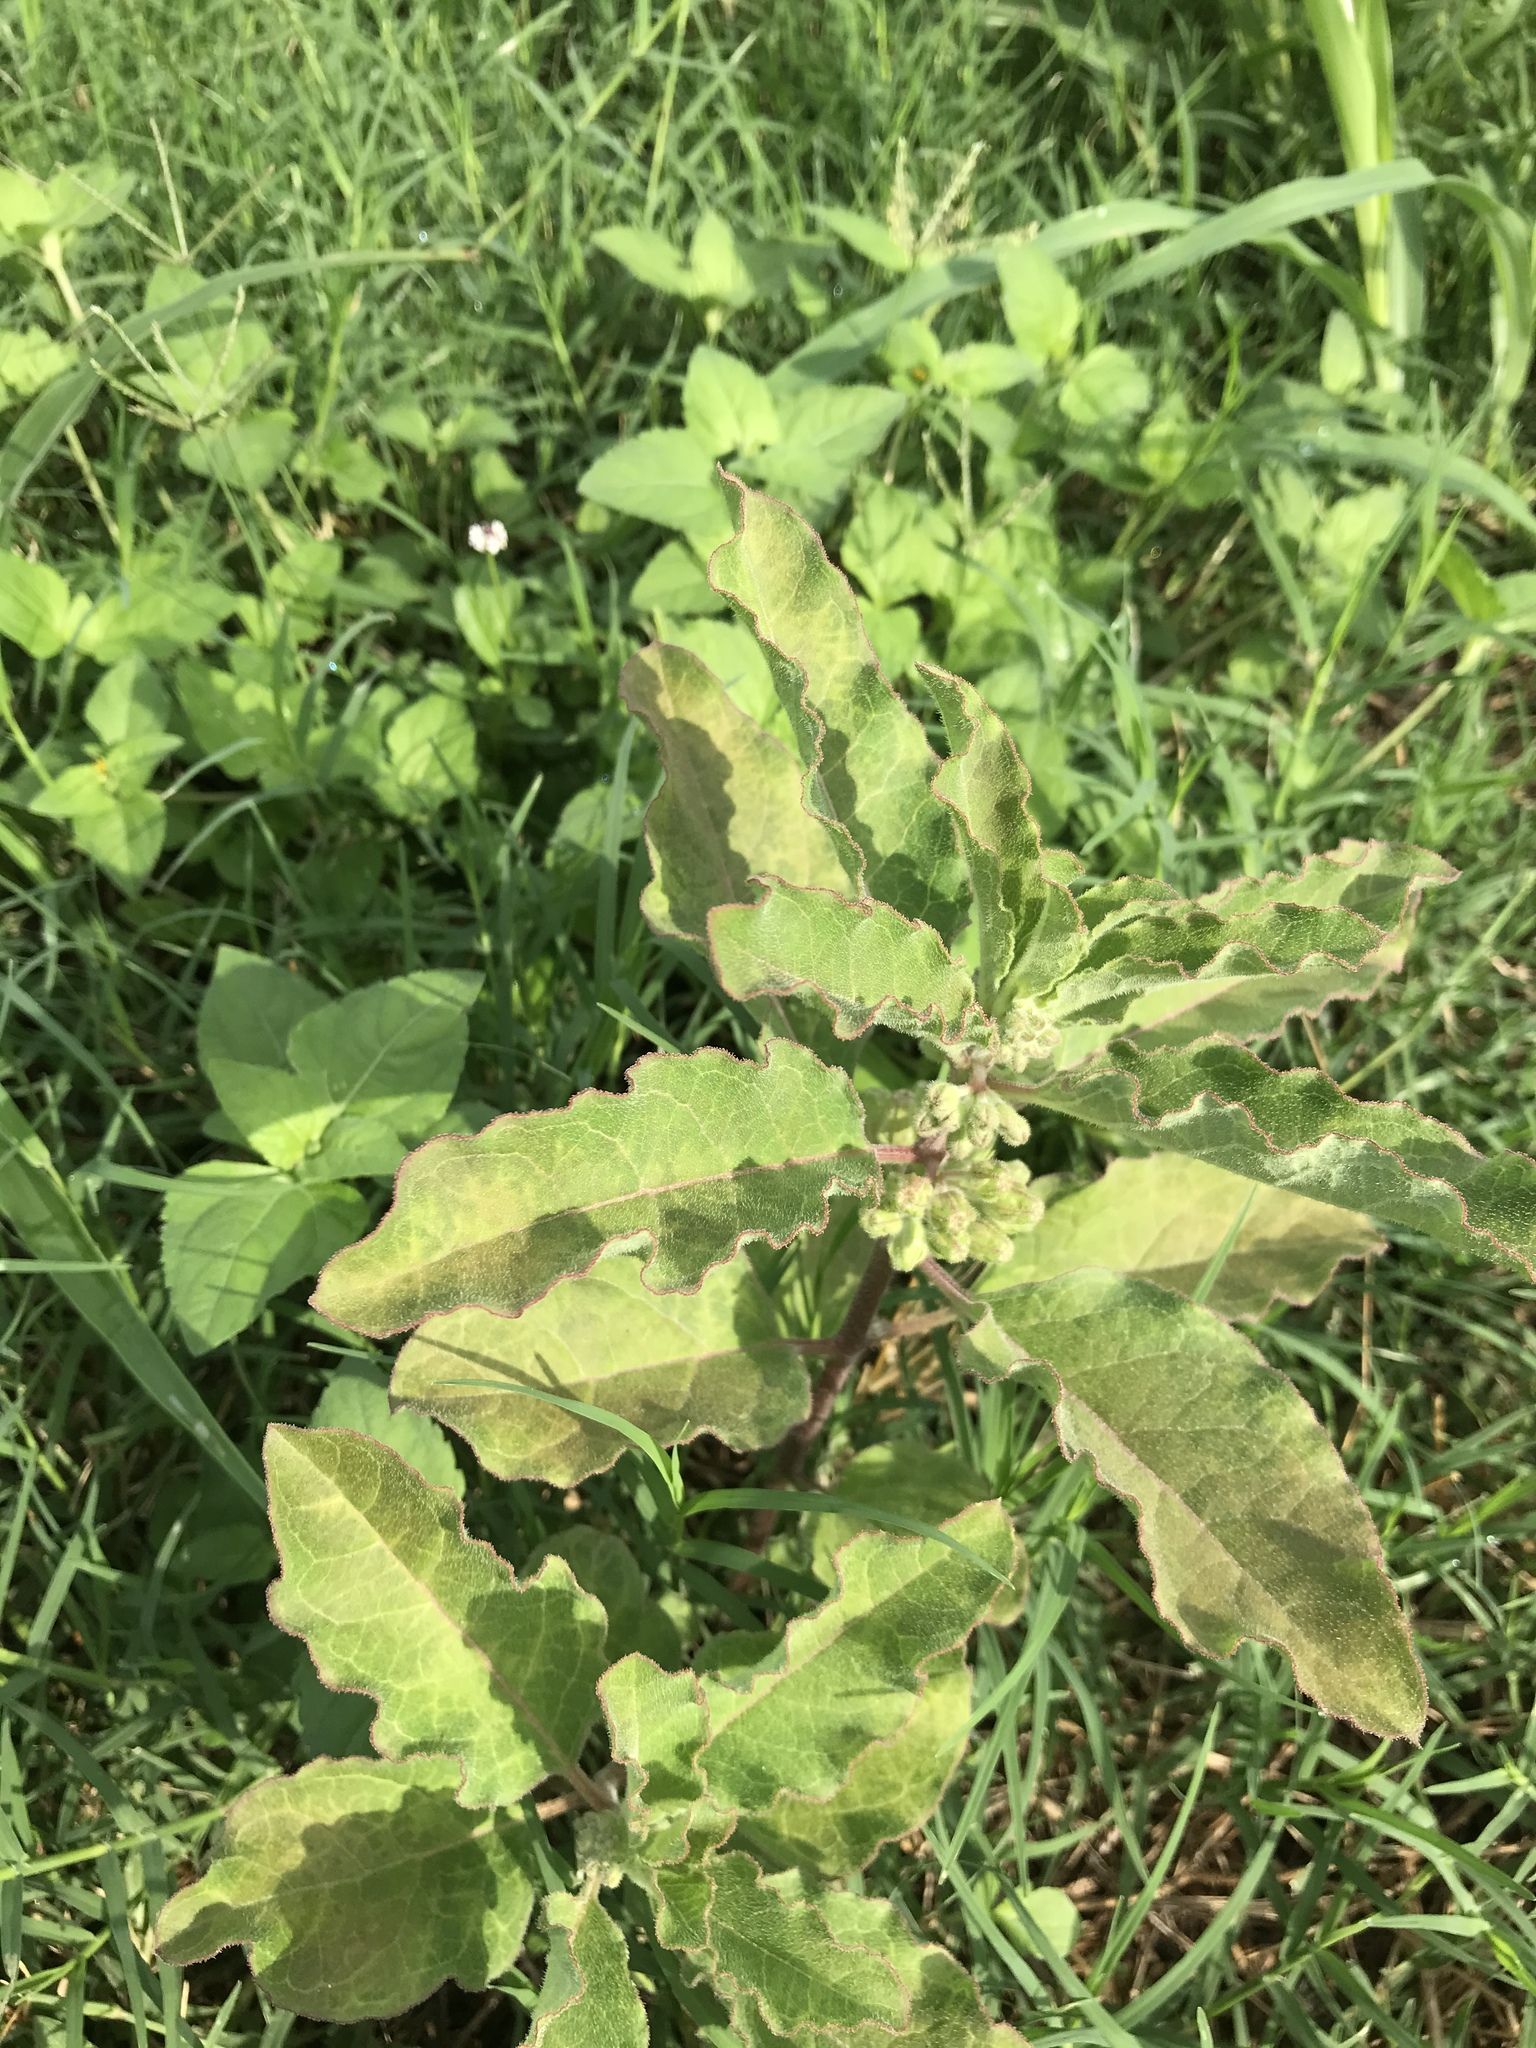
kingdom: Plantae
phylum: Tracheophyta
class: Magnoliopsida
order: Gentianales
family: Apocynaceae
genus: Asclepias
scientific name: Asclepias oenotheroides
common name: Zizotes milkweed
